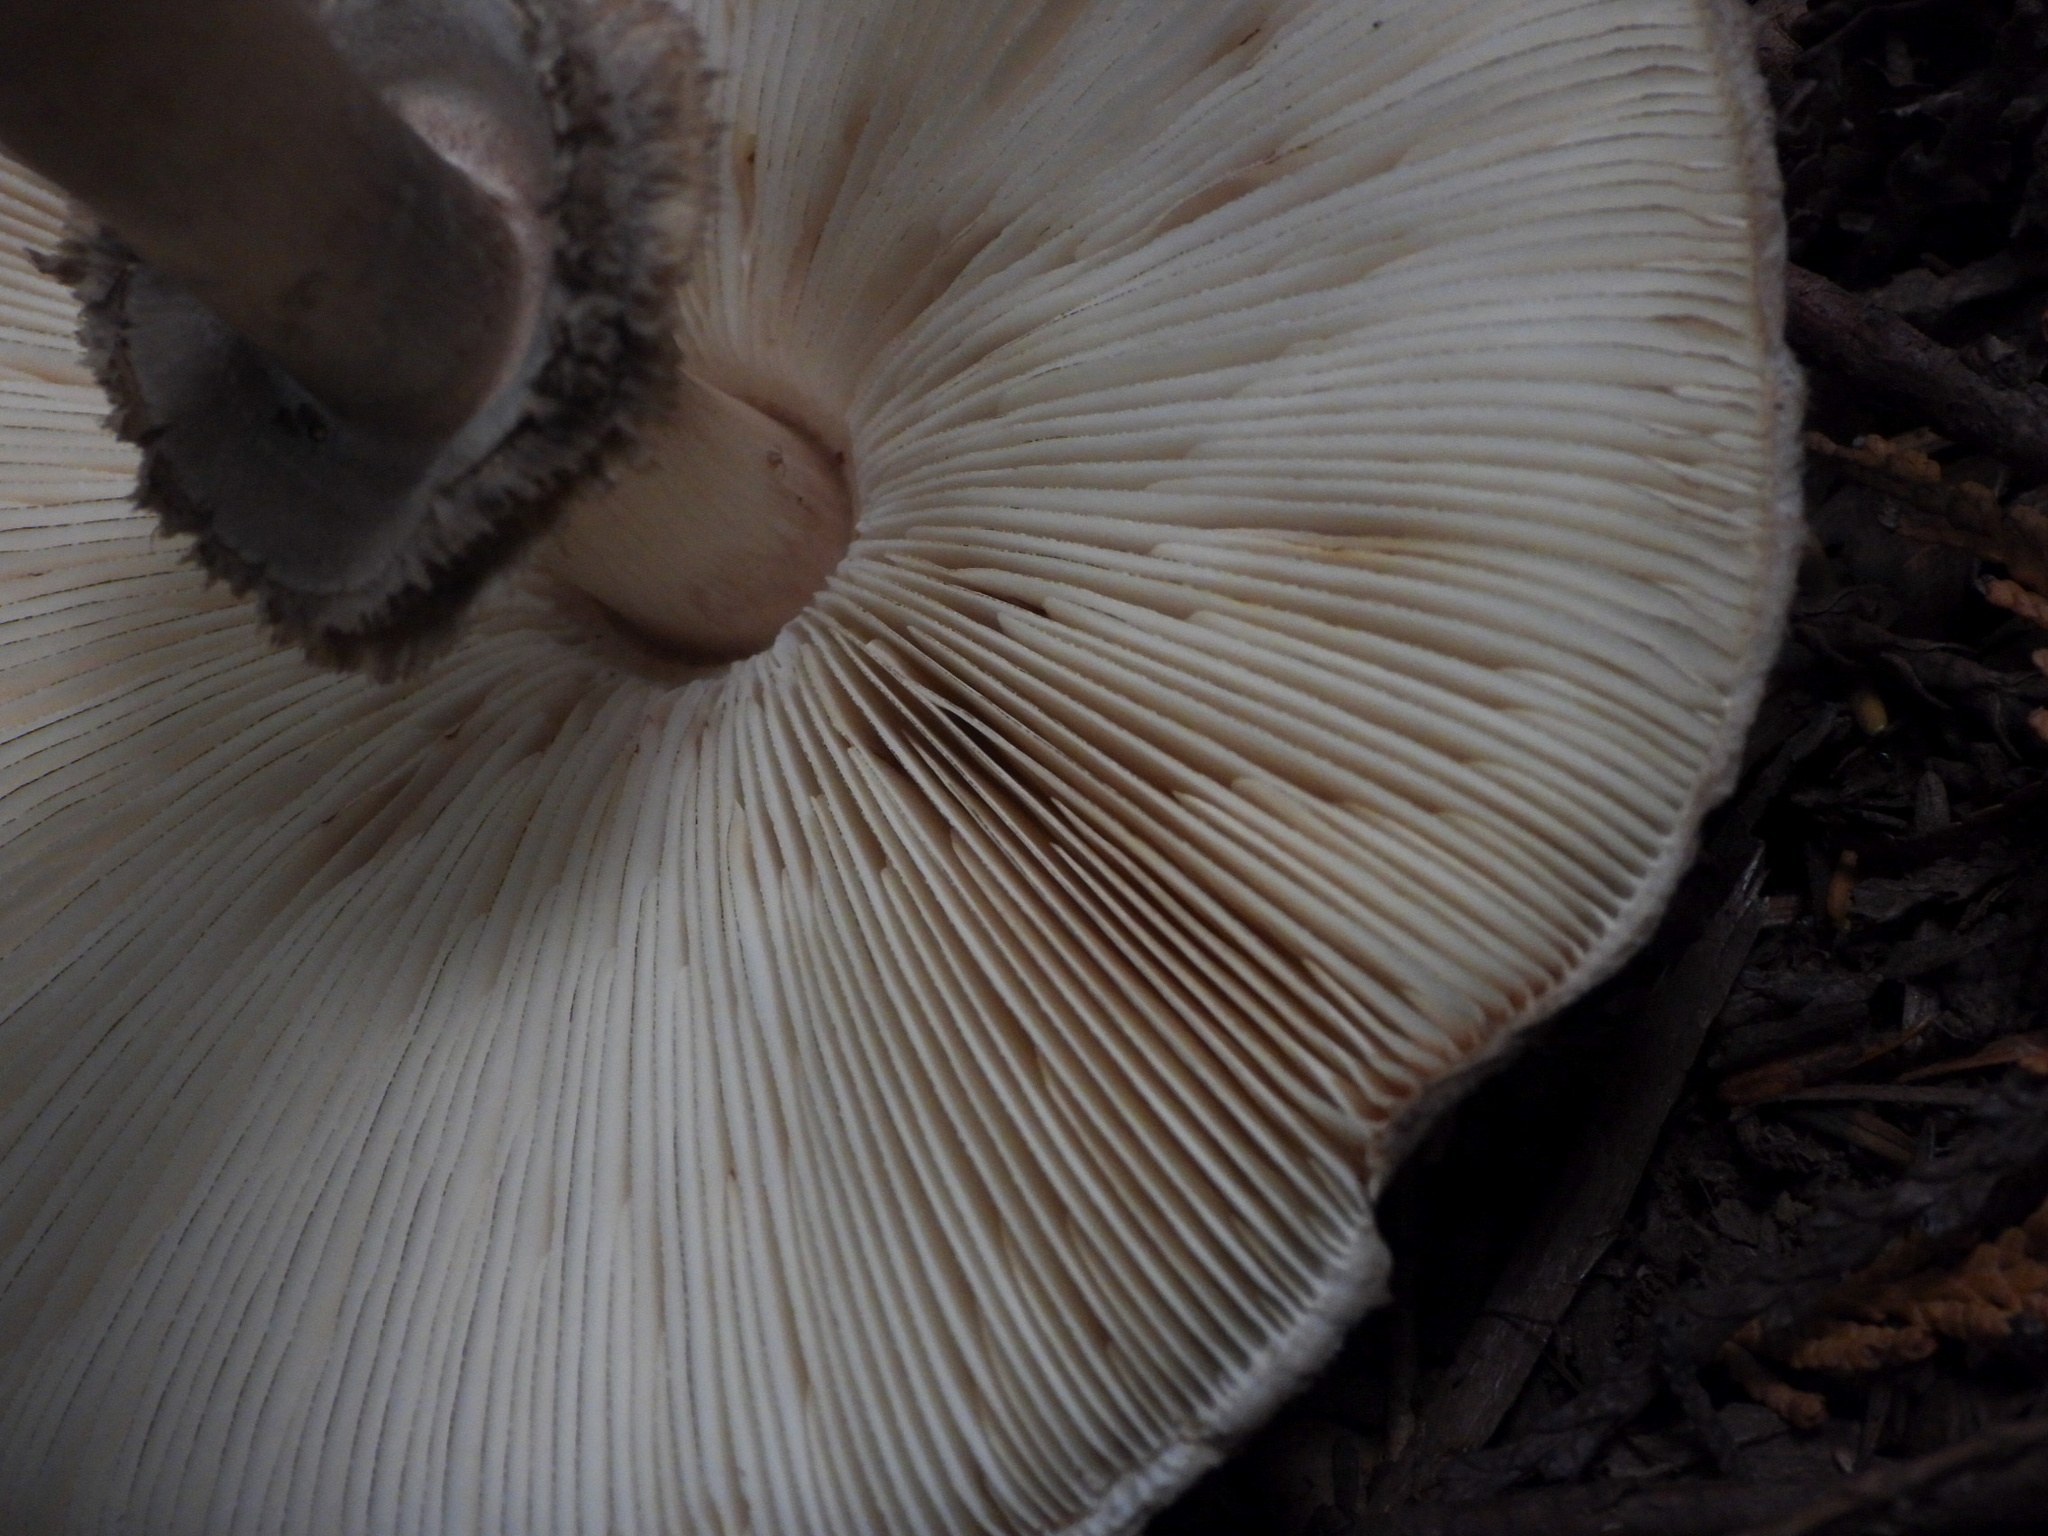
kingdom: Fungi
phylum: Basidiomycota
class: Agaricomycetes
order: Agaricales
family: Agaricaceae
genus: Chlorophyllum
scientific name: Chlorophyllum olivieri
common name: Conifer parasol
